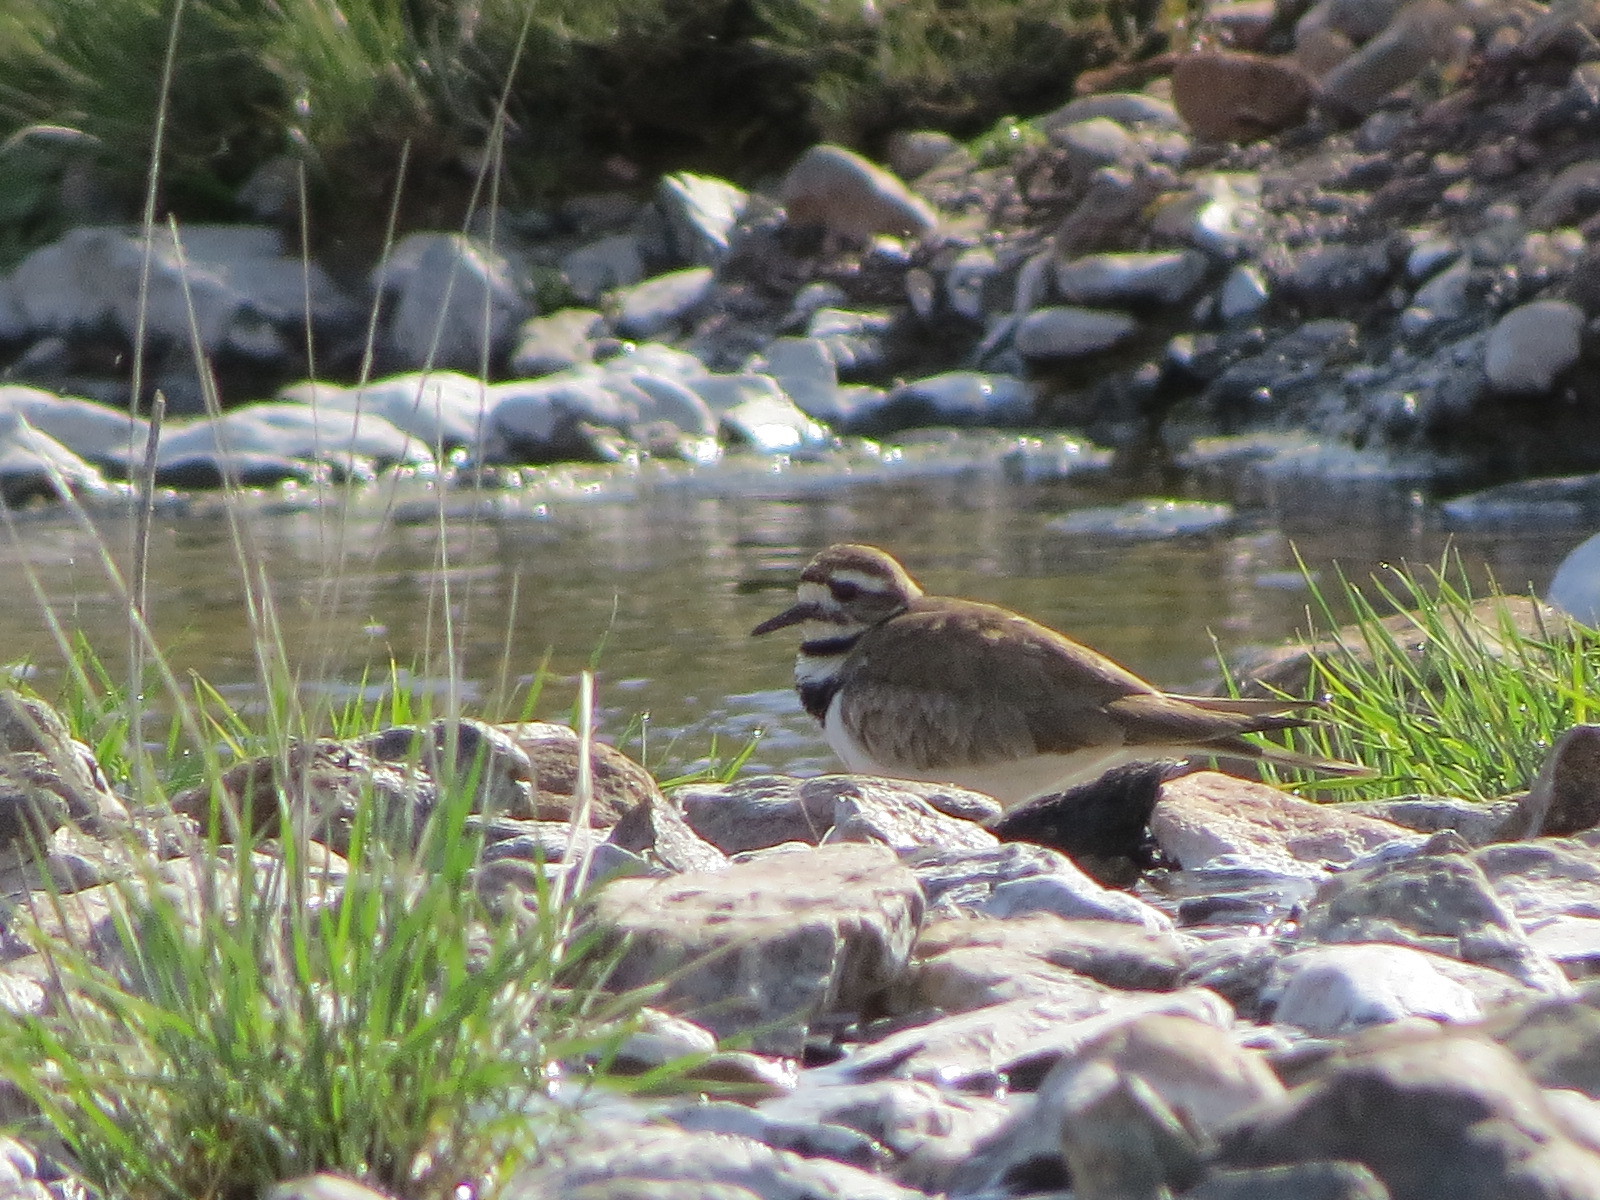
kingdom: Animalia
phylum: Chordata
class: Aves
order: Charadriiformes
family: Charadriidae
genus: Charadrius
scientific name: Charadrius vociferus
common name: Killdeer
